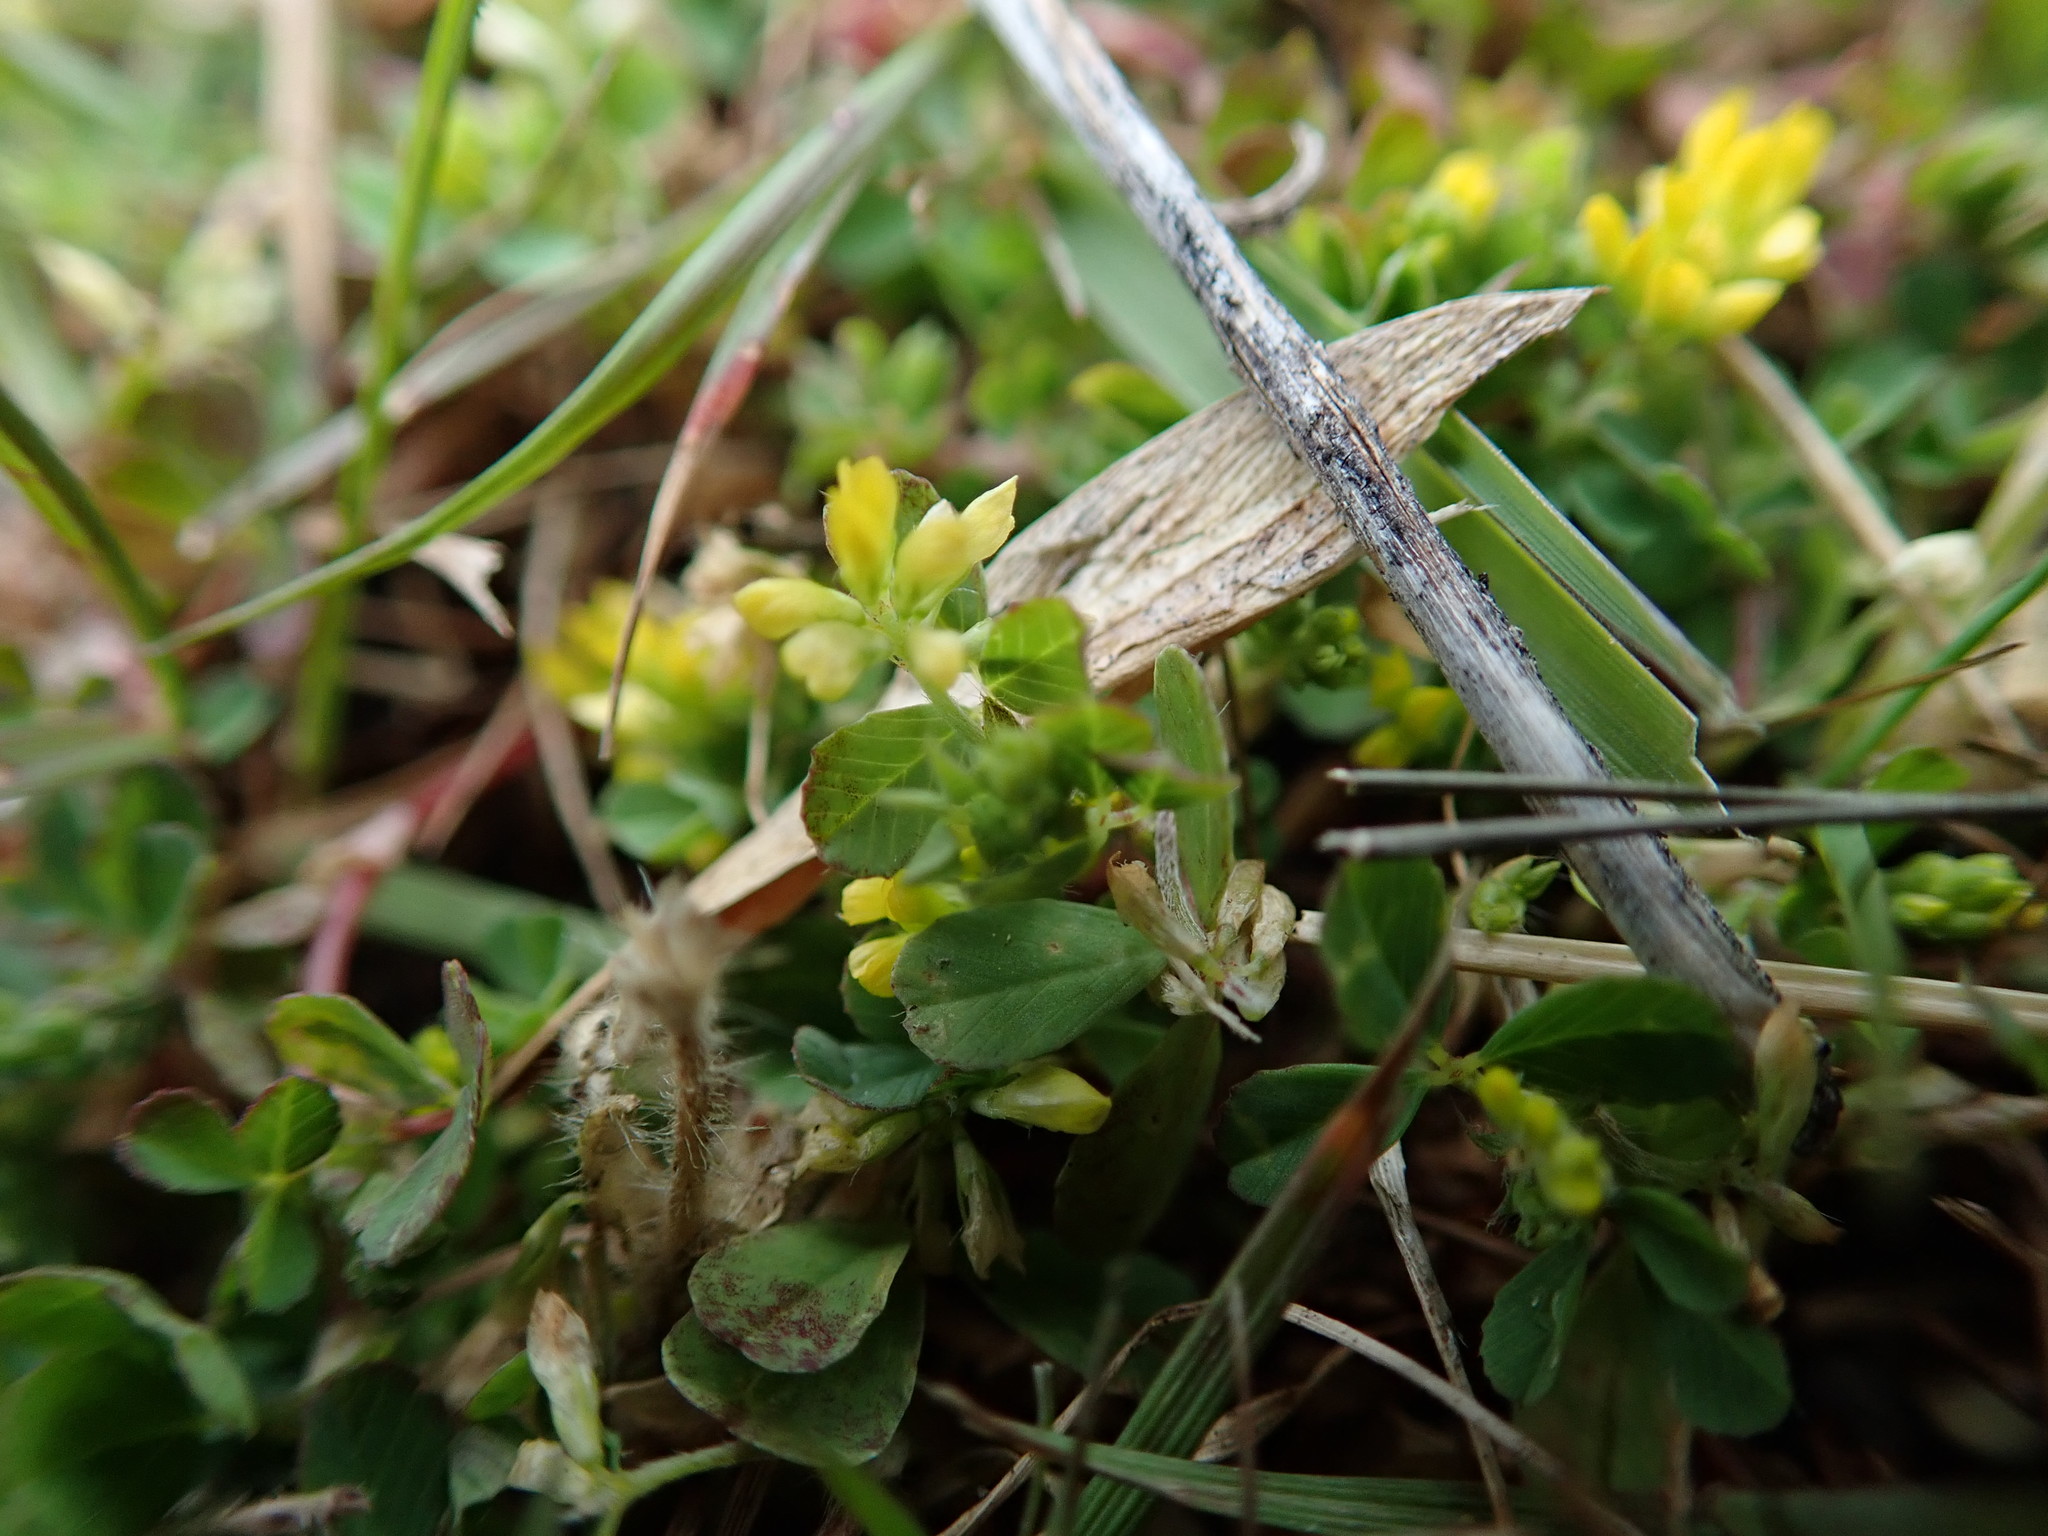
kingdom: Plantae
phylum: Tracheophyta
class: Magnoliopsida
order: Fabales
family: Fabaceae
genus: Trifolium
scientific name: Trifolium dubium
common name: Suckling clover
